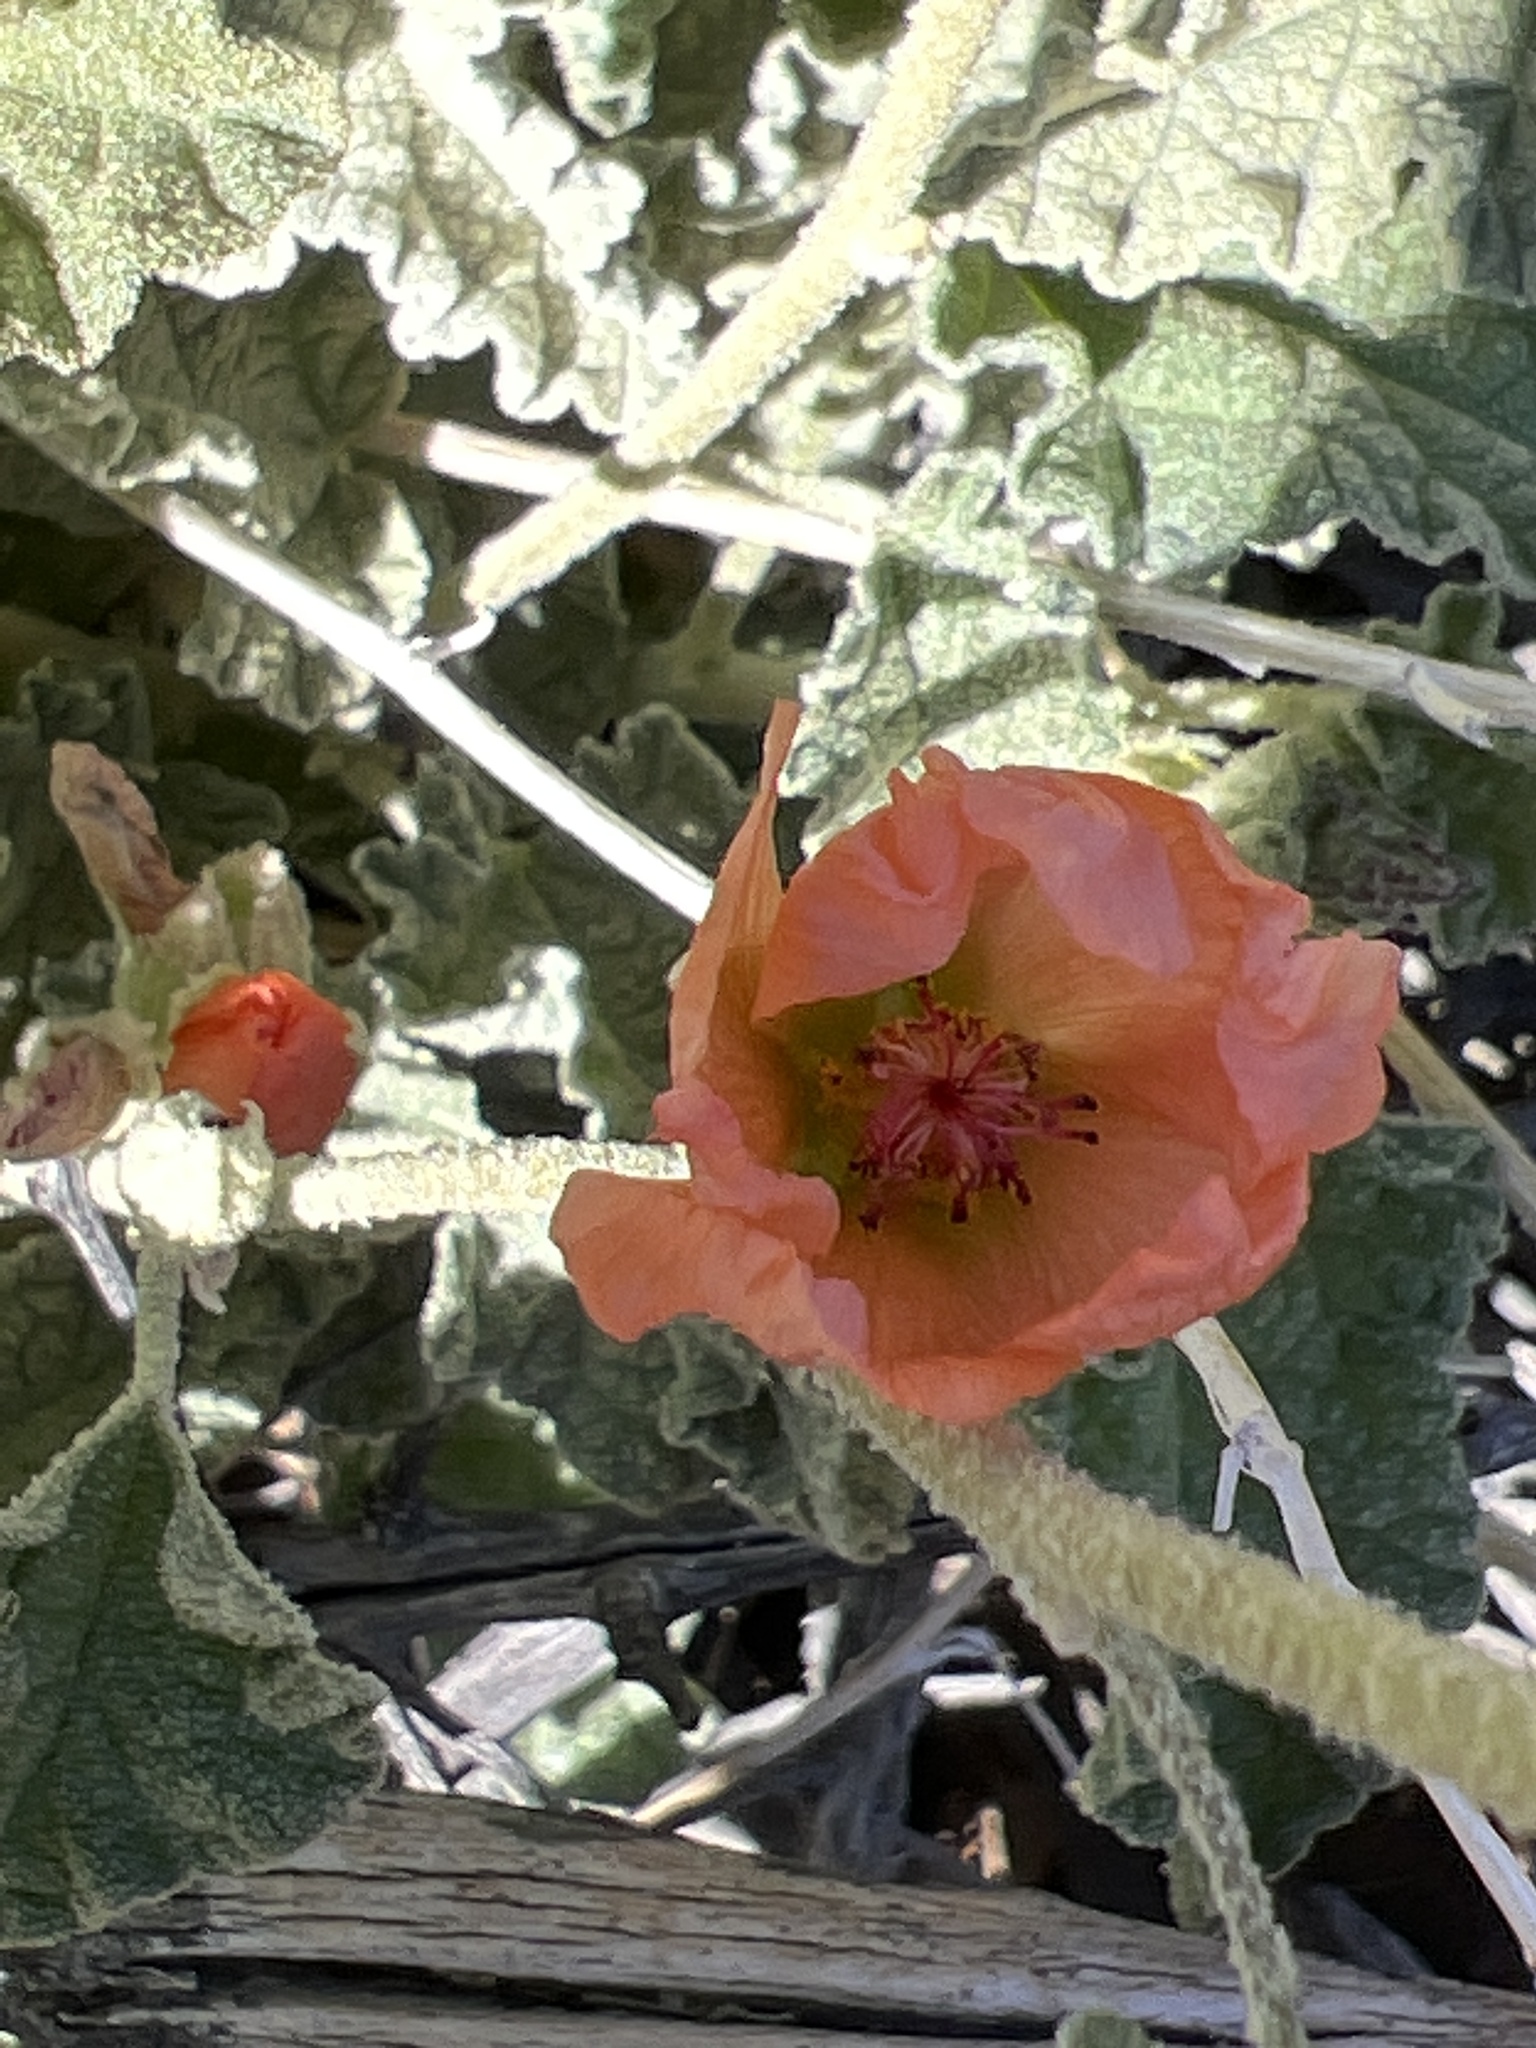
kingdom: Plantae
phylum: Tracheophyta
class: Magnoliopsida
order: Malvales
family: Malvaceae
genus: Sphaeralcea
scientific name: Sphaeralcea ambigua
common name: Apricot globe-mallow
